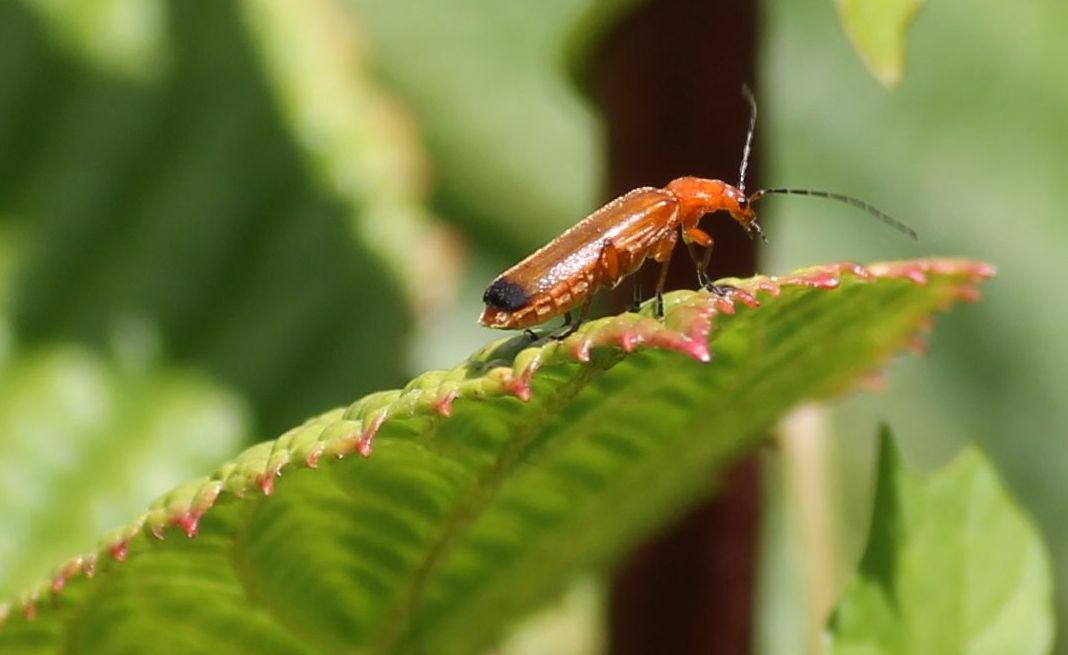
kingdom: Animalia
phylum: Arthropoda
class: Insecta
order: Coleoptera
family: Cantharidae
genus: Rhagonycha
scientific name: Rhagonycha fulva
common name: Common red soldier beetle
